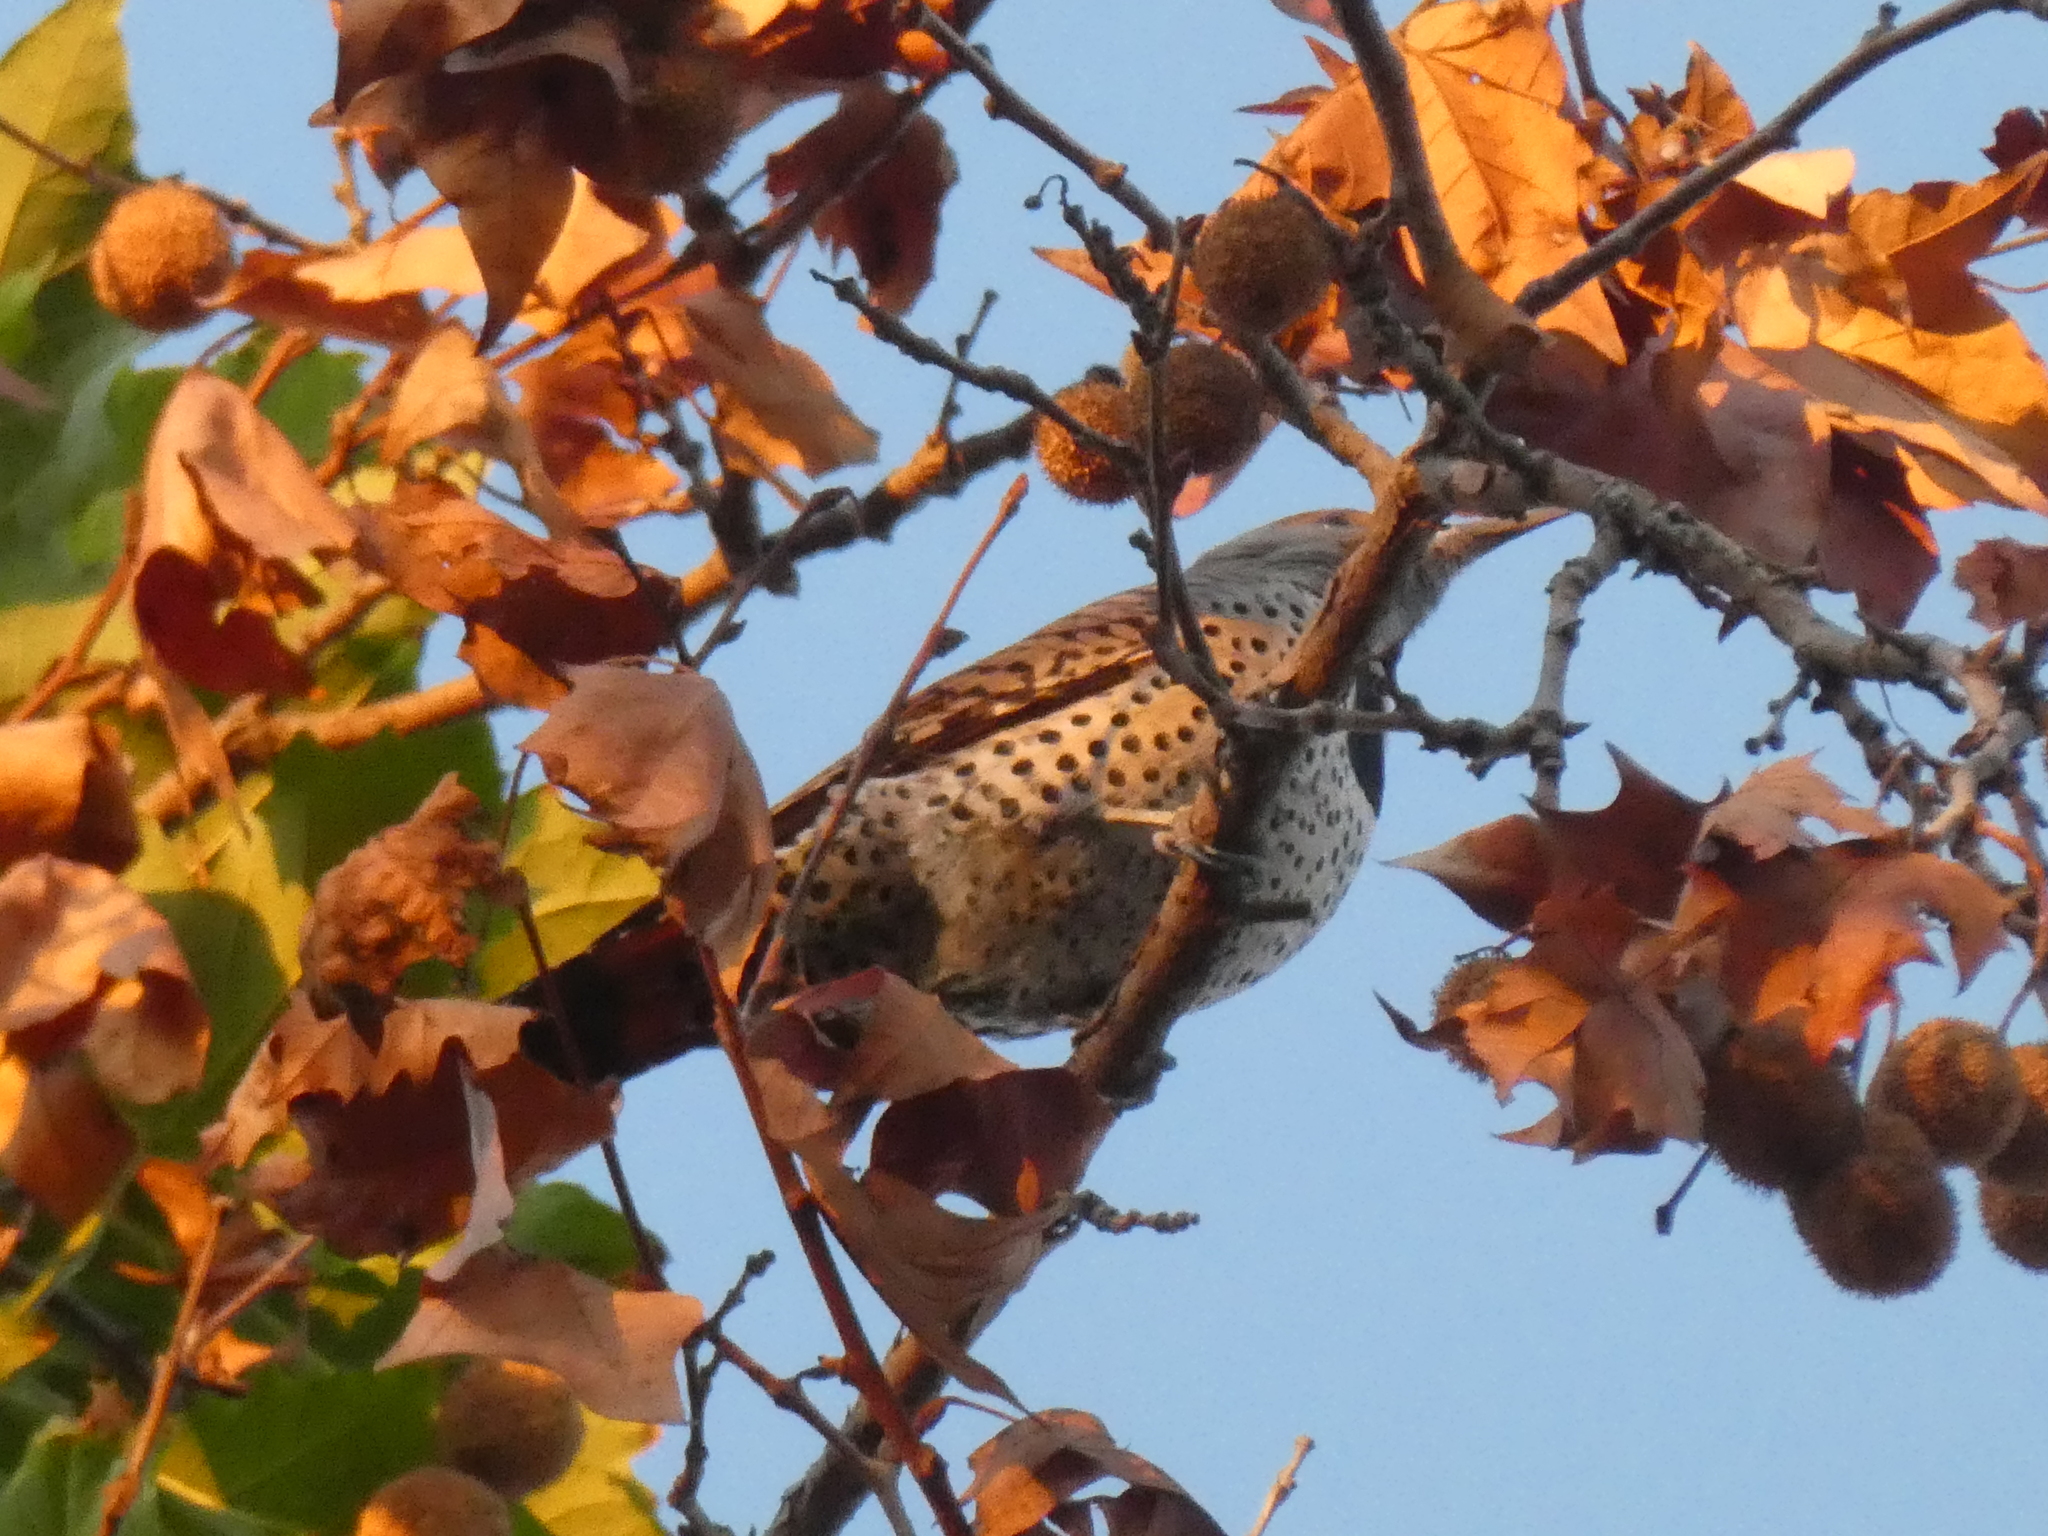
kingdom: Animalia
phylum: Chordata
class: Aves
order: Piciformes
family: Picidae
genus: Colaptes
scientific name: Colaptes auratus
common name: Northern flicker
